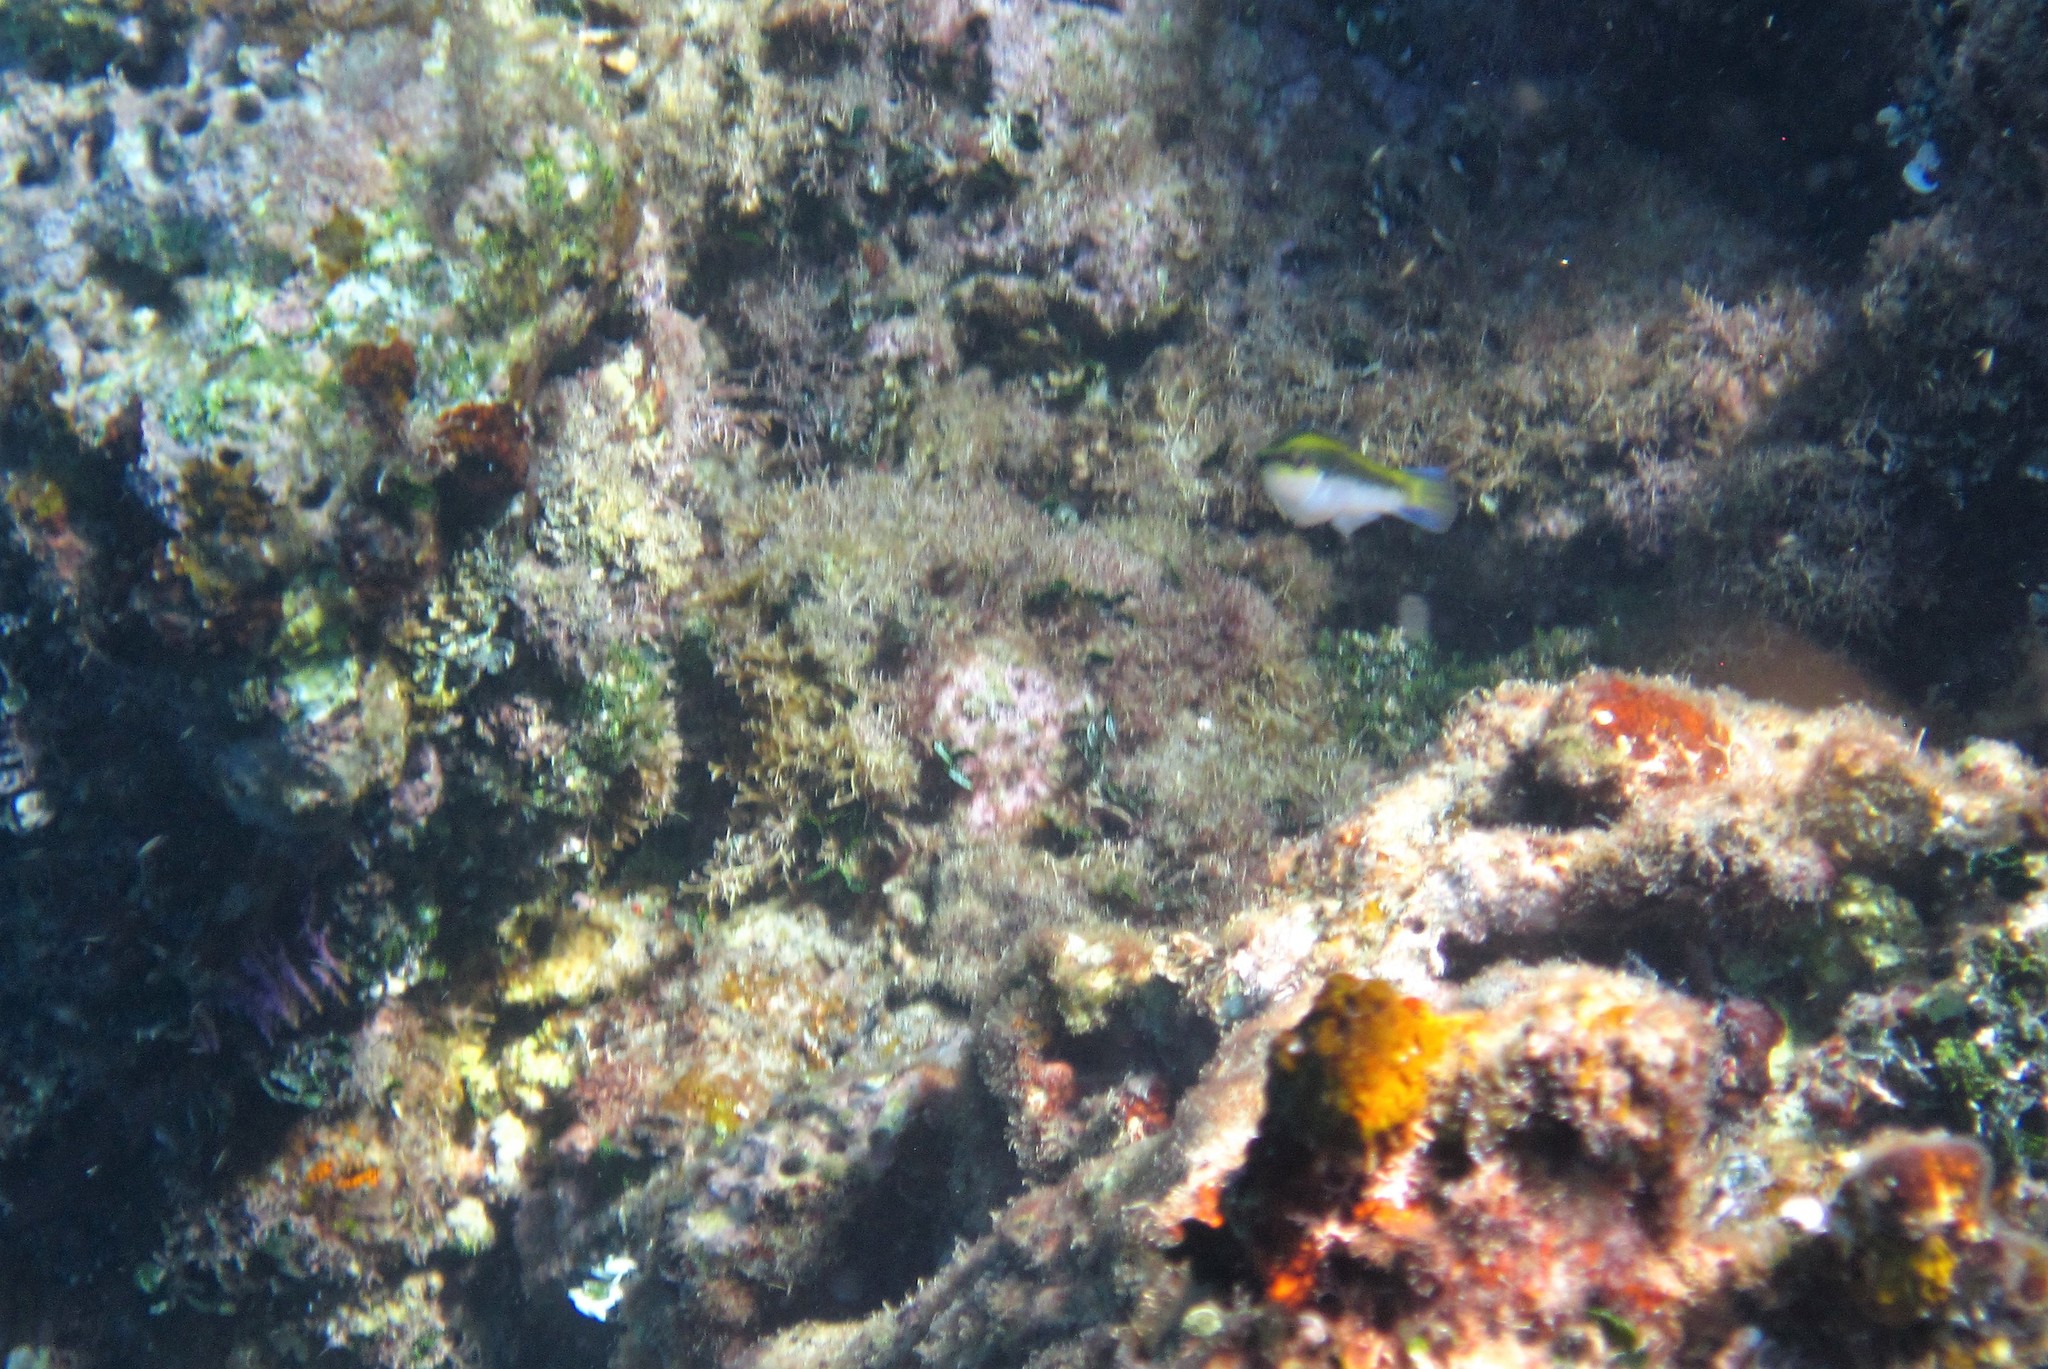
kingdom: Animalia
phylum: Chordata
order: Perciformes
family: Labridae
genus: Thalassoma
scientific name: Thalassoma bifasciatum
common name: Bluehead wrasse
